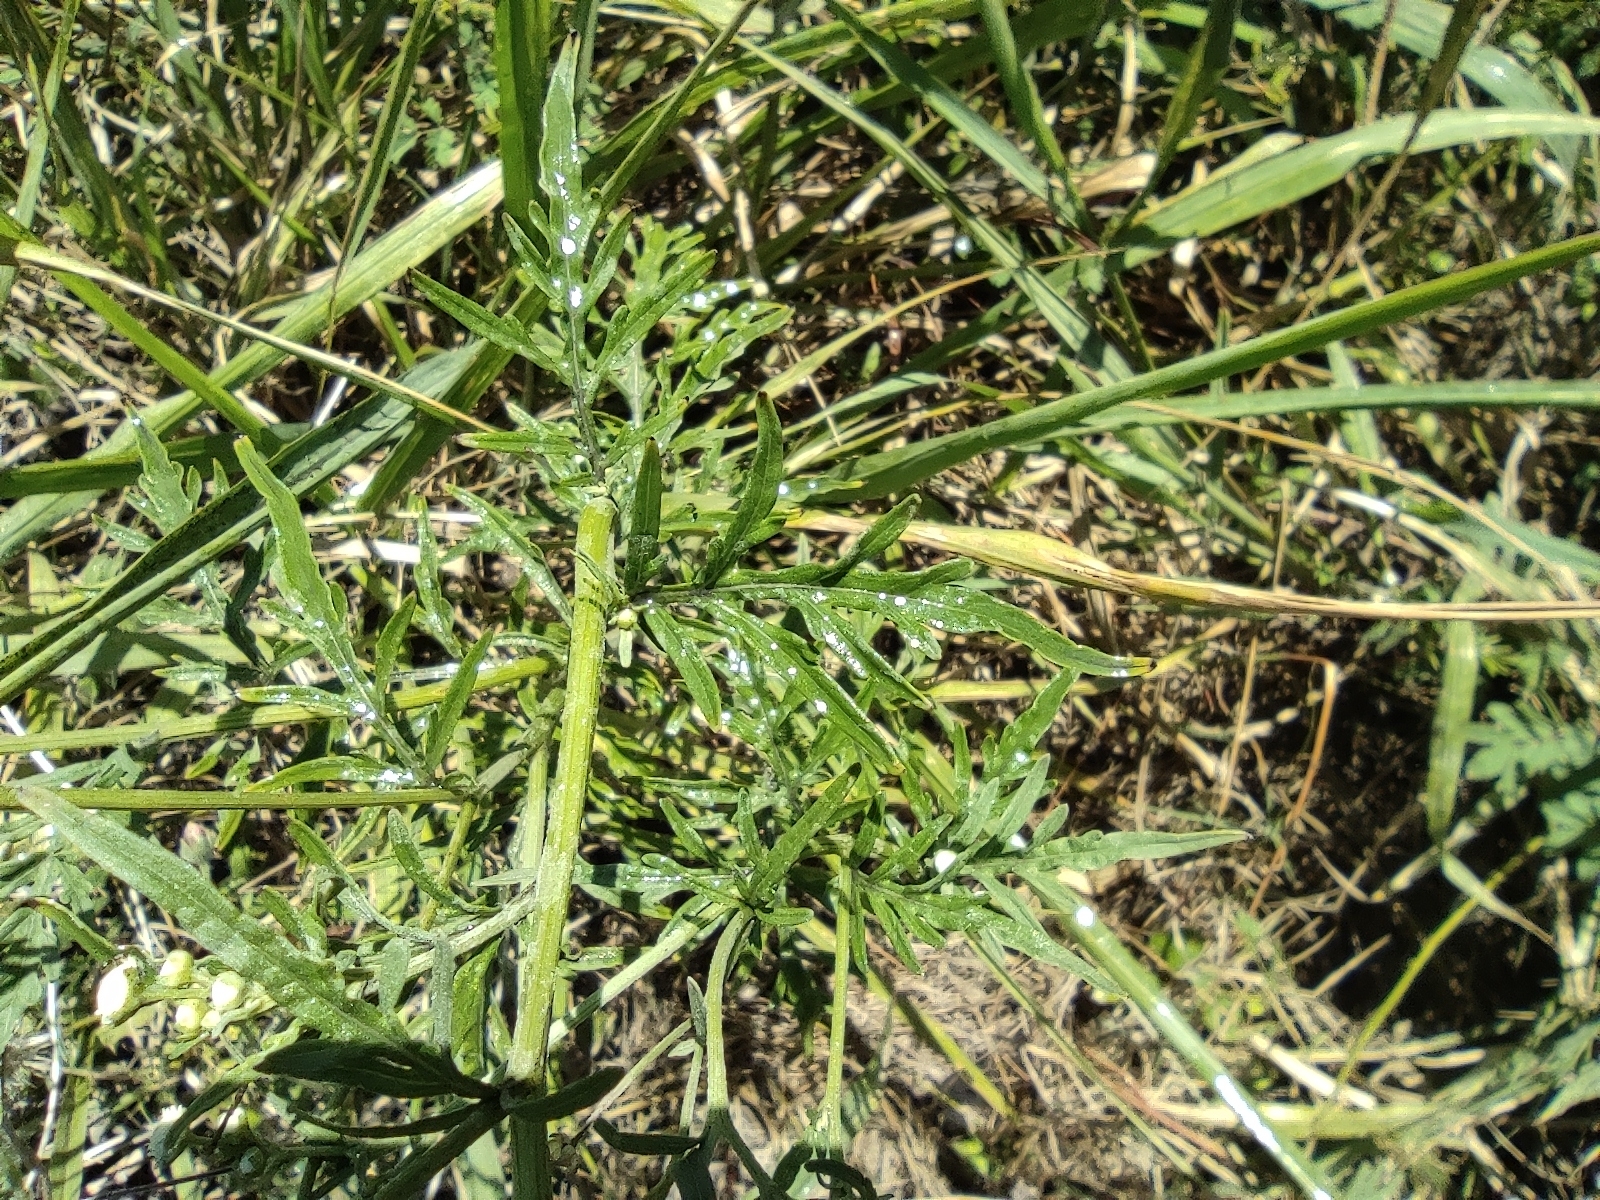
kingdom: Plantae
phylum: Tracheophyta
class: Magnoliopsida
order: Asterales
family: Asteraceae
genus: Tridax
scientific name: Tridax procumbens
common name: Coatbuttons
